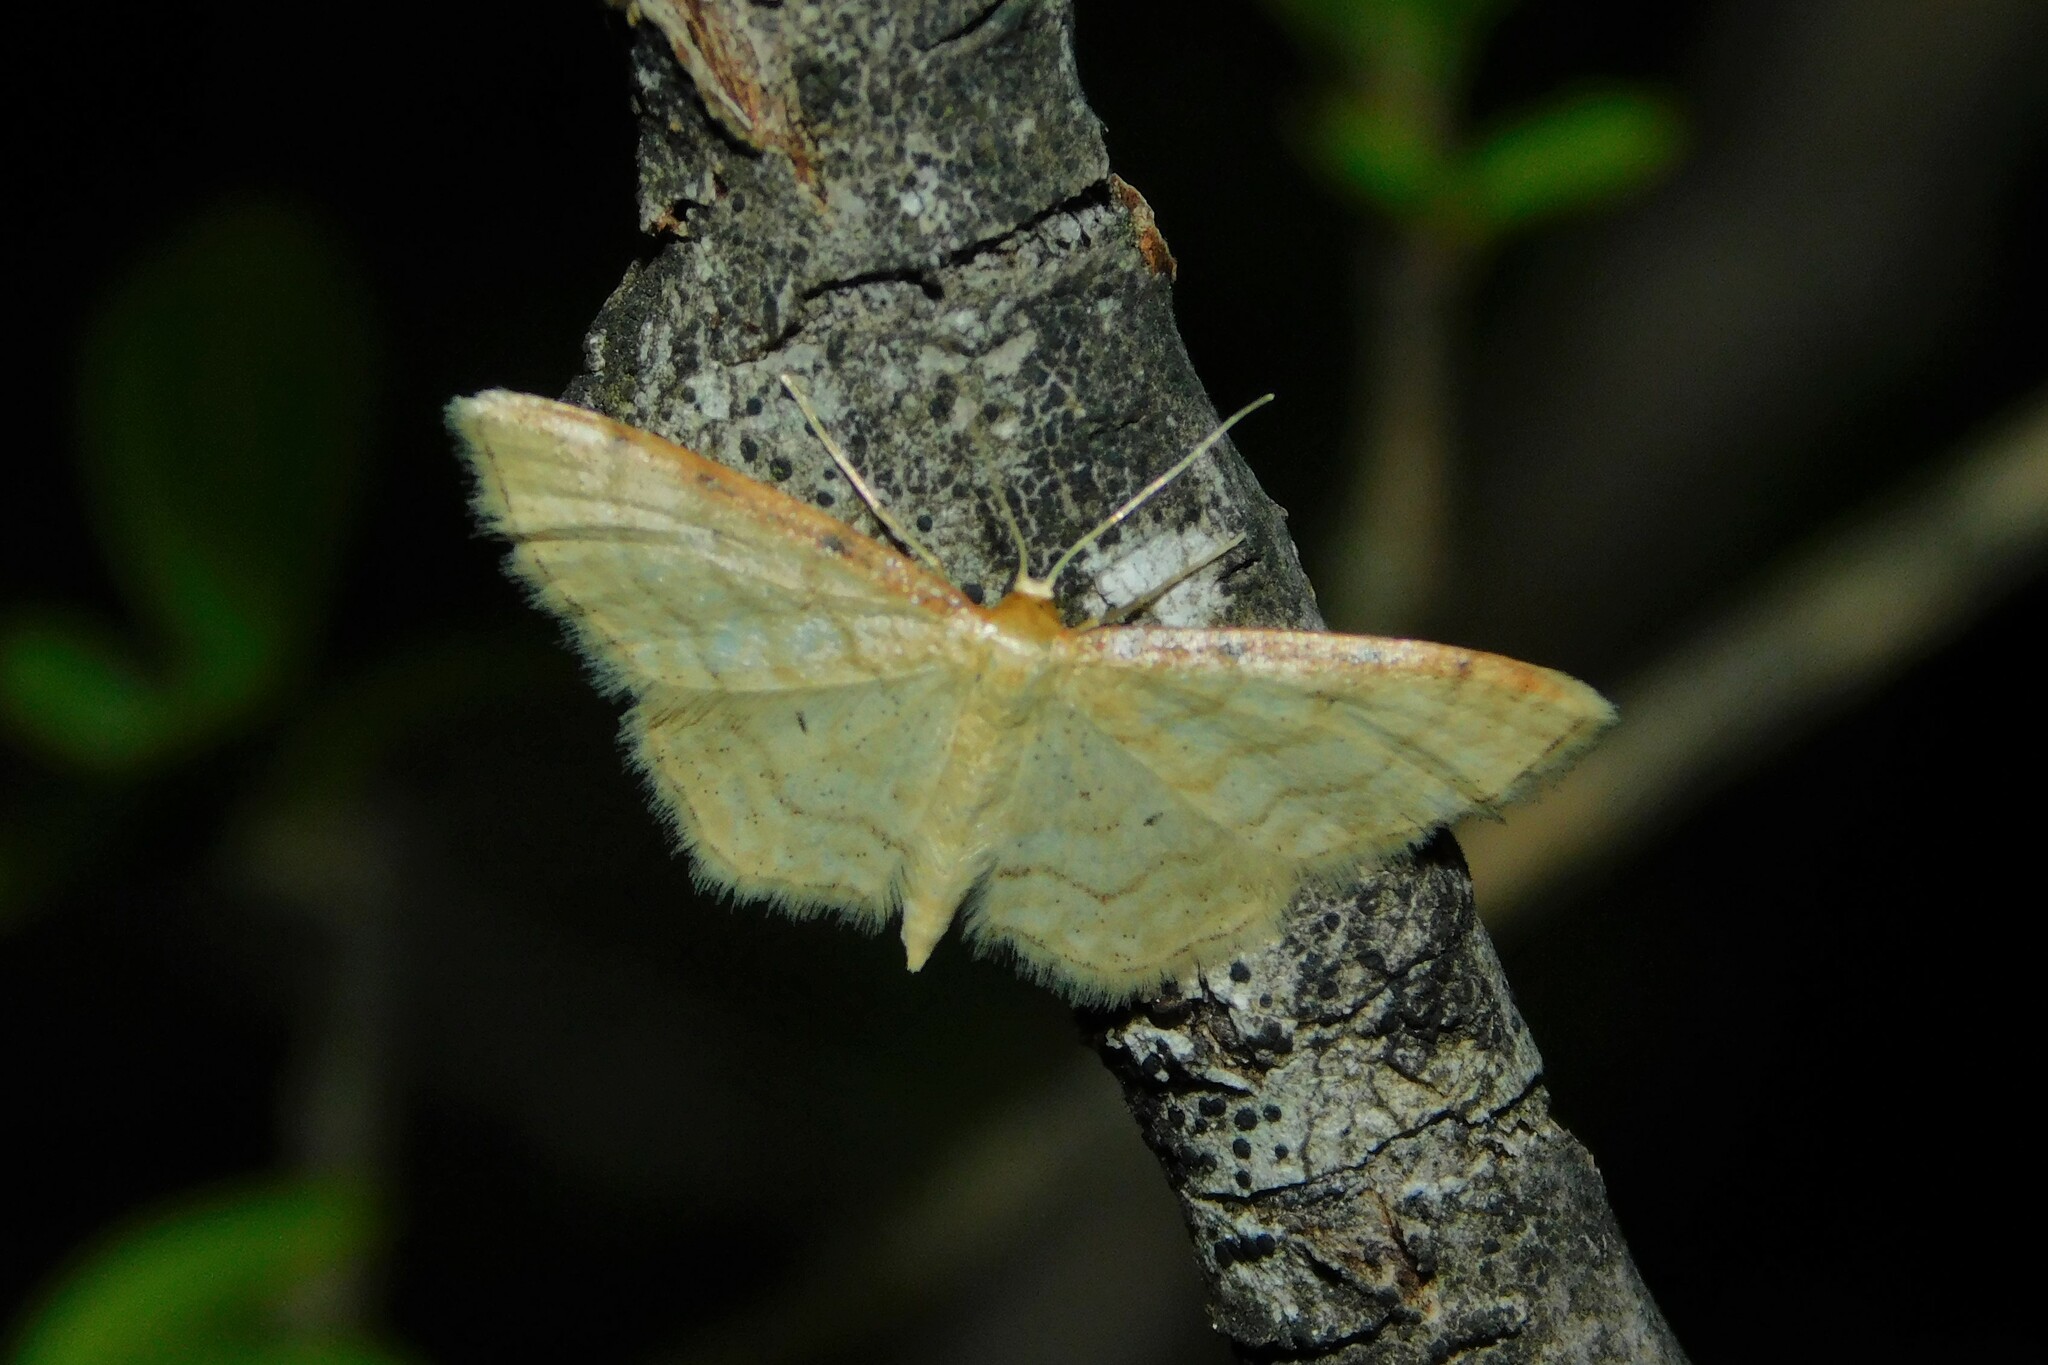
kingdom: Animalia
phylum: Arthropoda
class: Insecta
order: Lepidoptera
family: Geometridae
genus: Idaea
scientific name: Idaea humiliata
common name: Isle of wight wave
